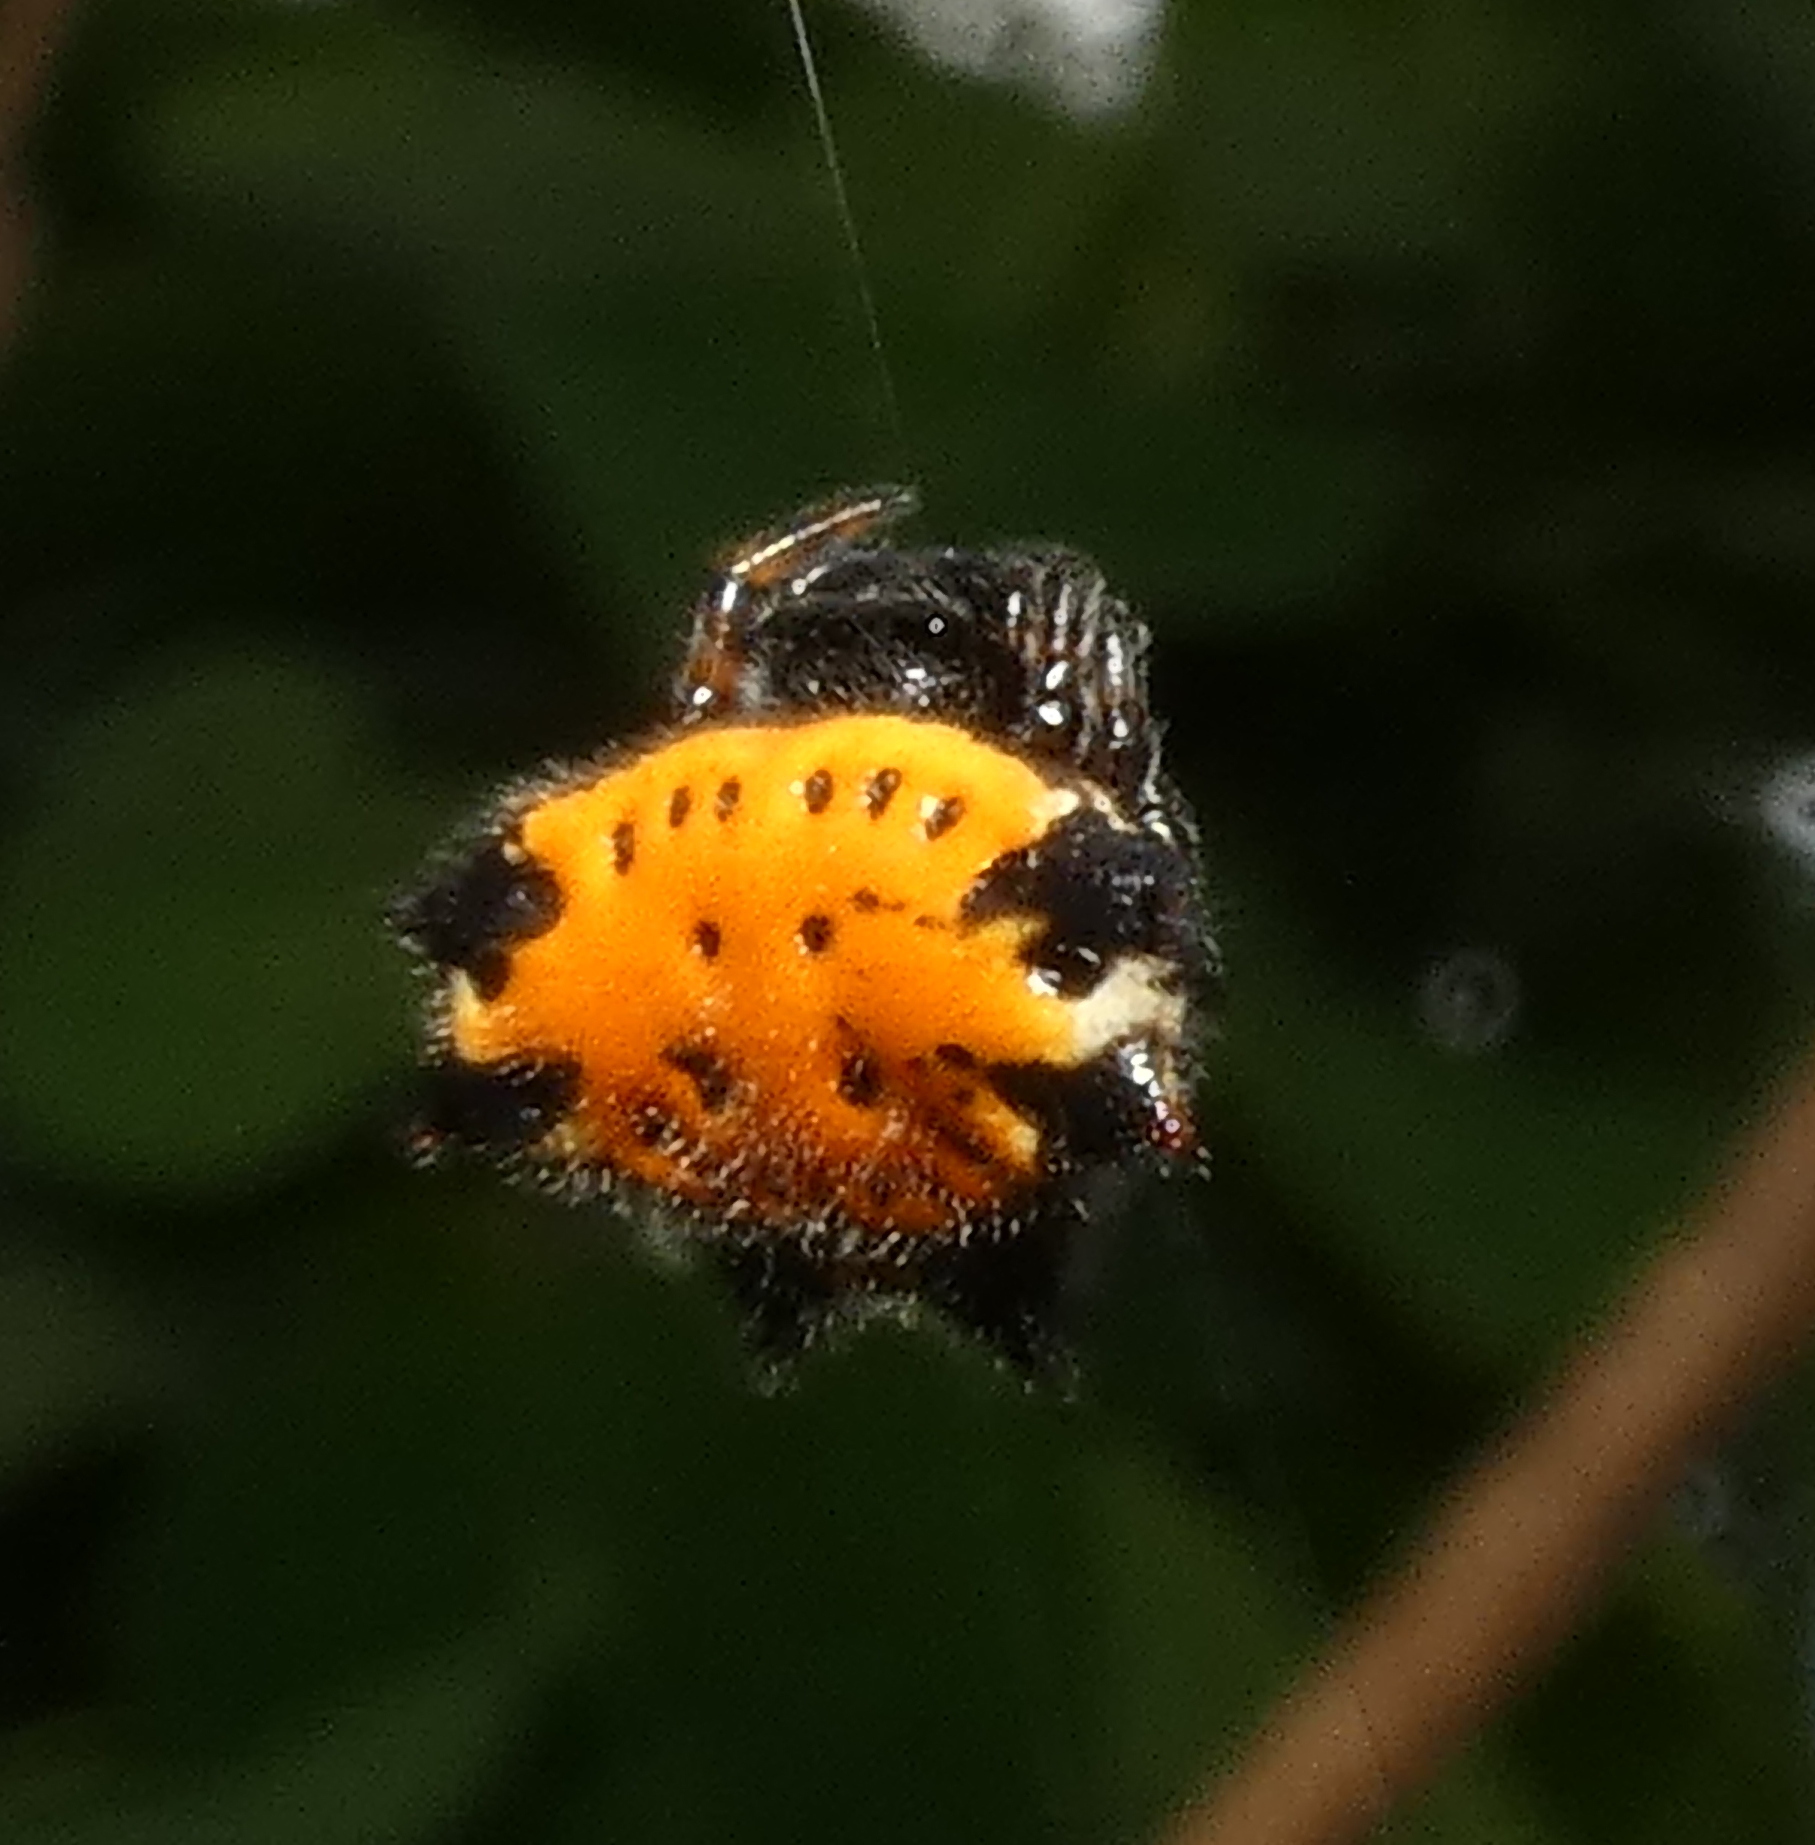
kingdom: Animalia
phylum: Arthropoda
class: Arachnida
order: Araneae
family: Araneidae
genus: Gasteracantha
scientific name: Gasteracantha cancriformis
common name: Orb weavers
